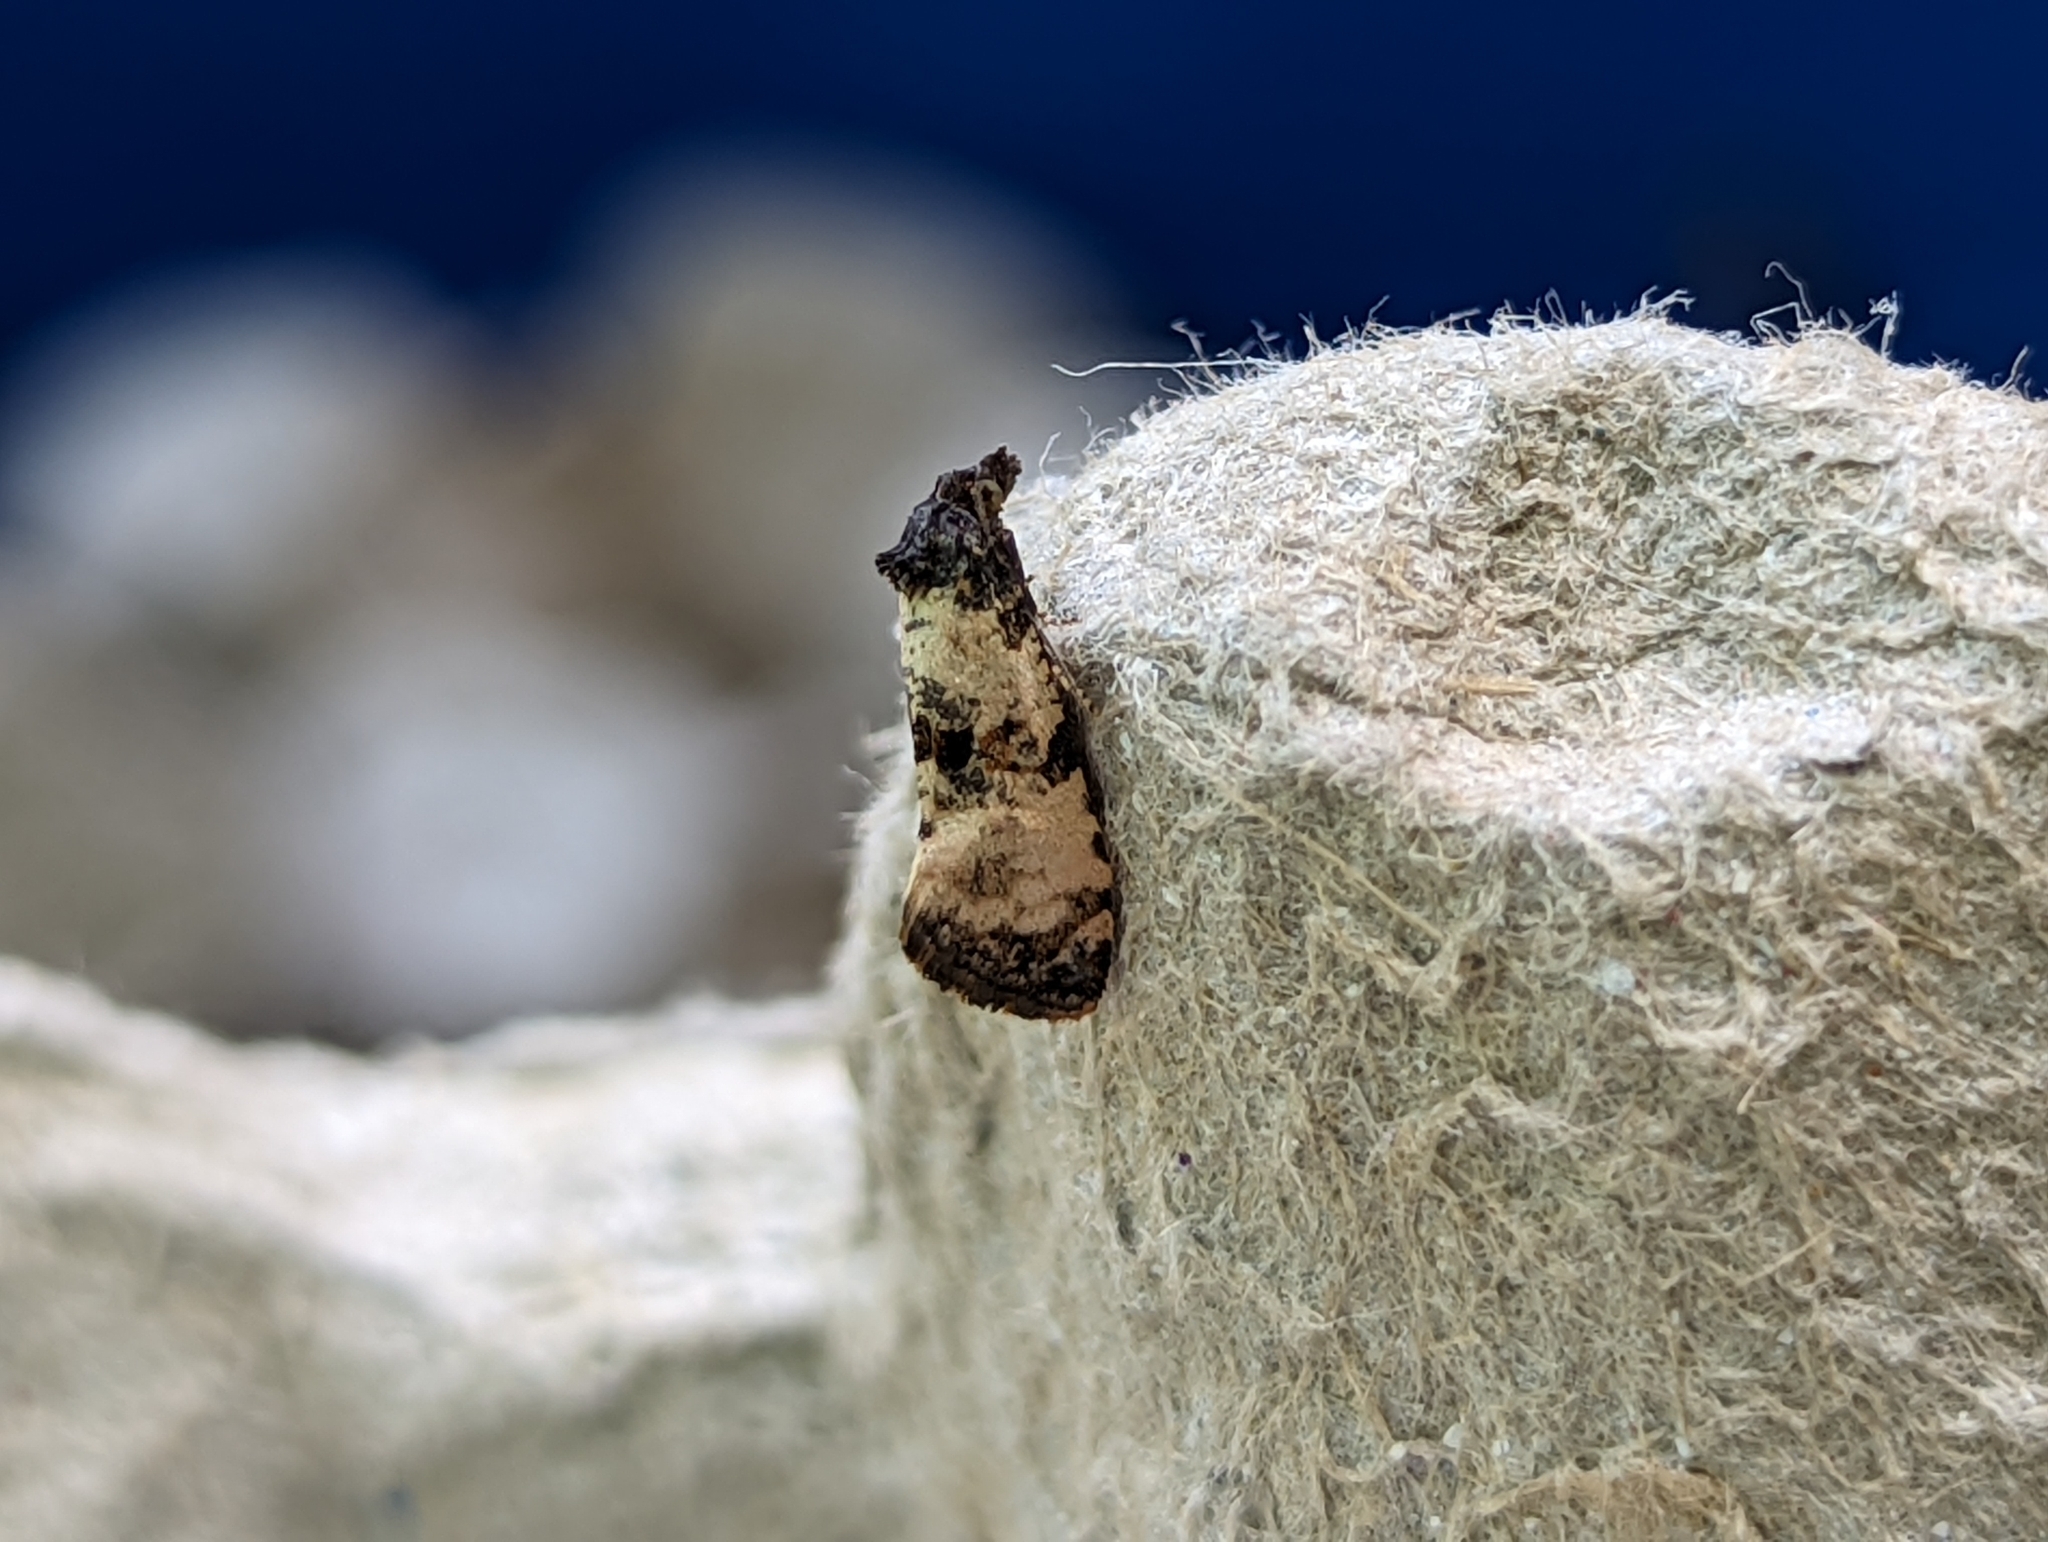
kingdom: Animalia
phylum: Arthropoda
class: Insecta
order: Lepidoptera
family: Tortricidae
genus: Cochylis
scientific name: Cochylis atricapitana
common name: Tortricid moth
